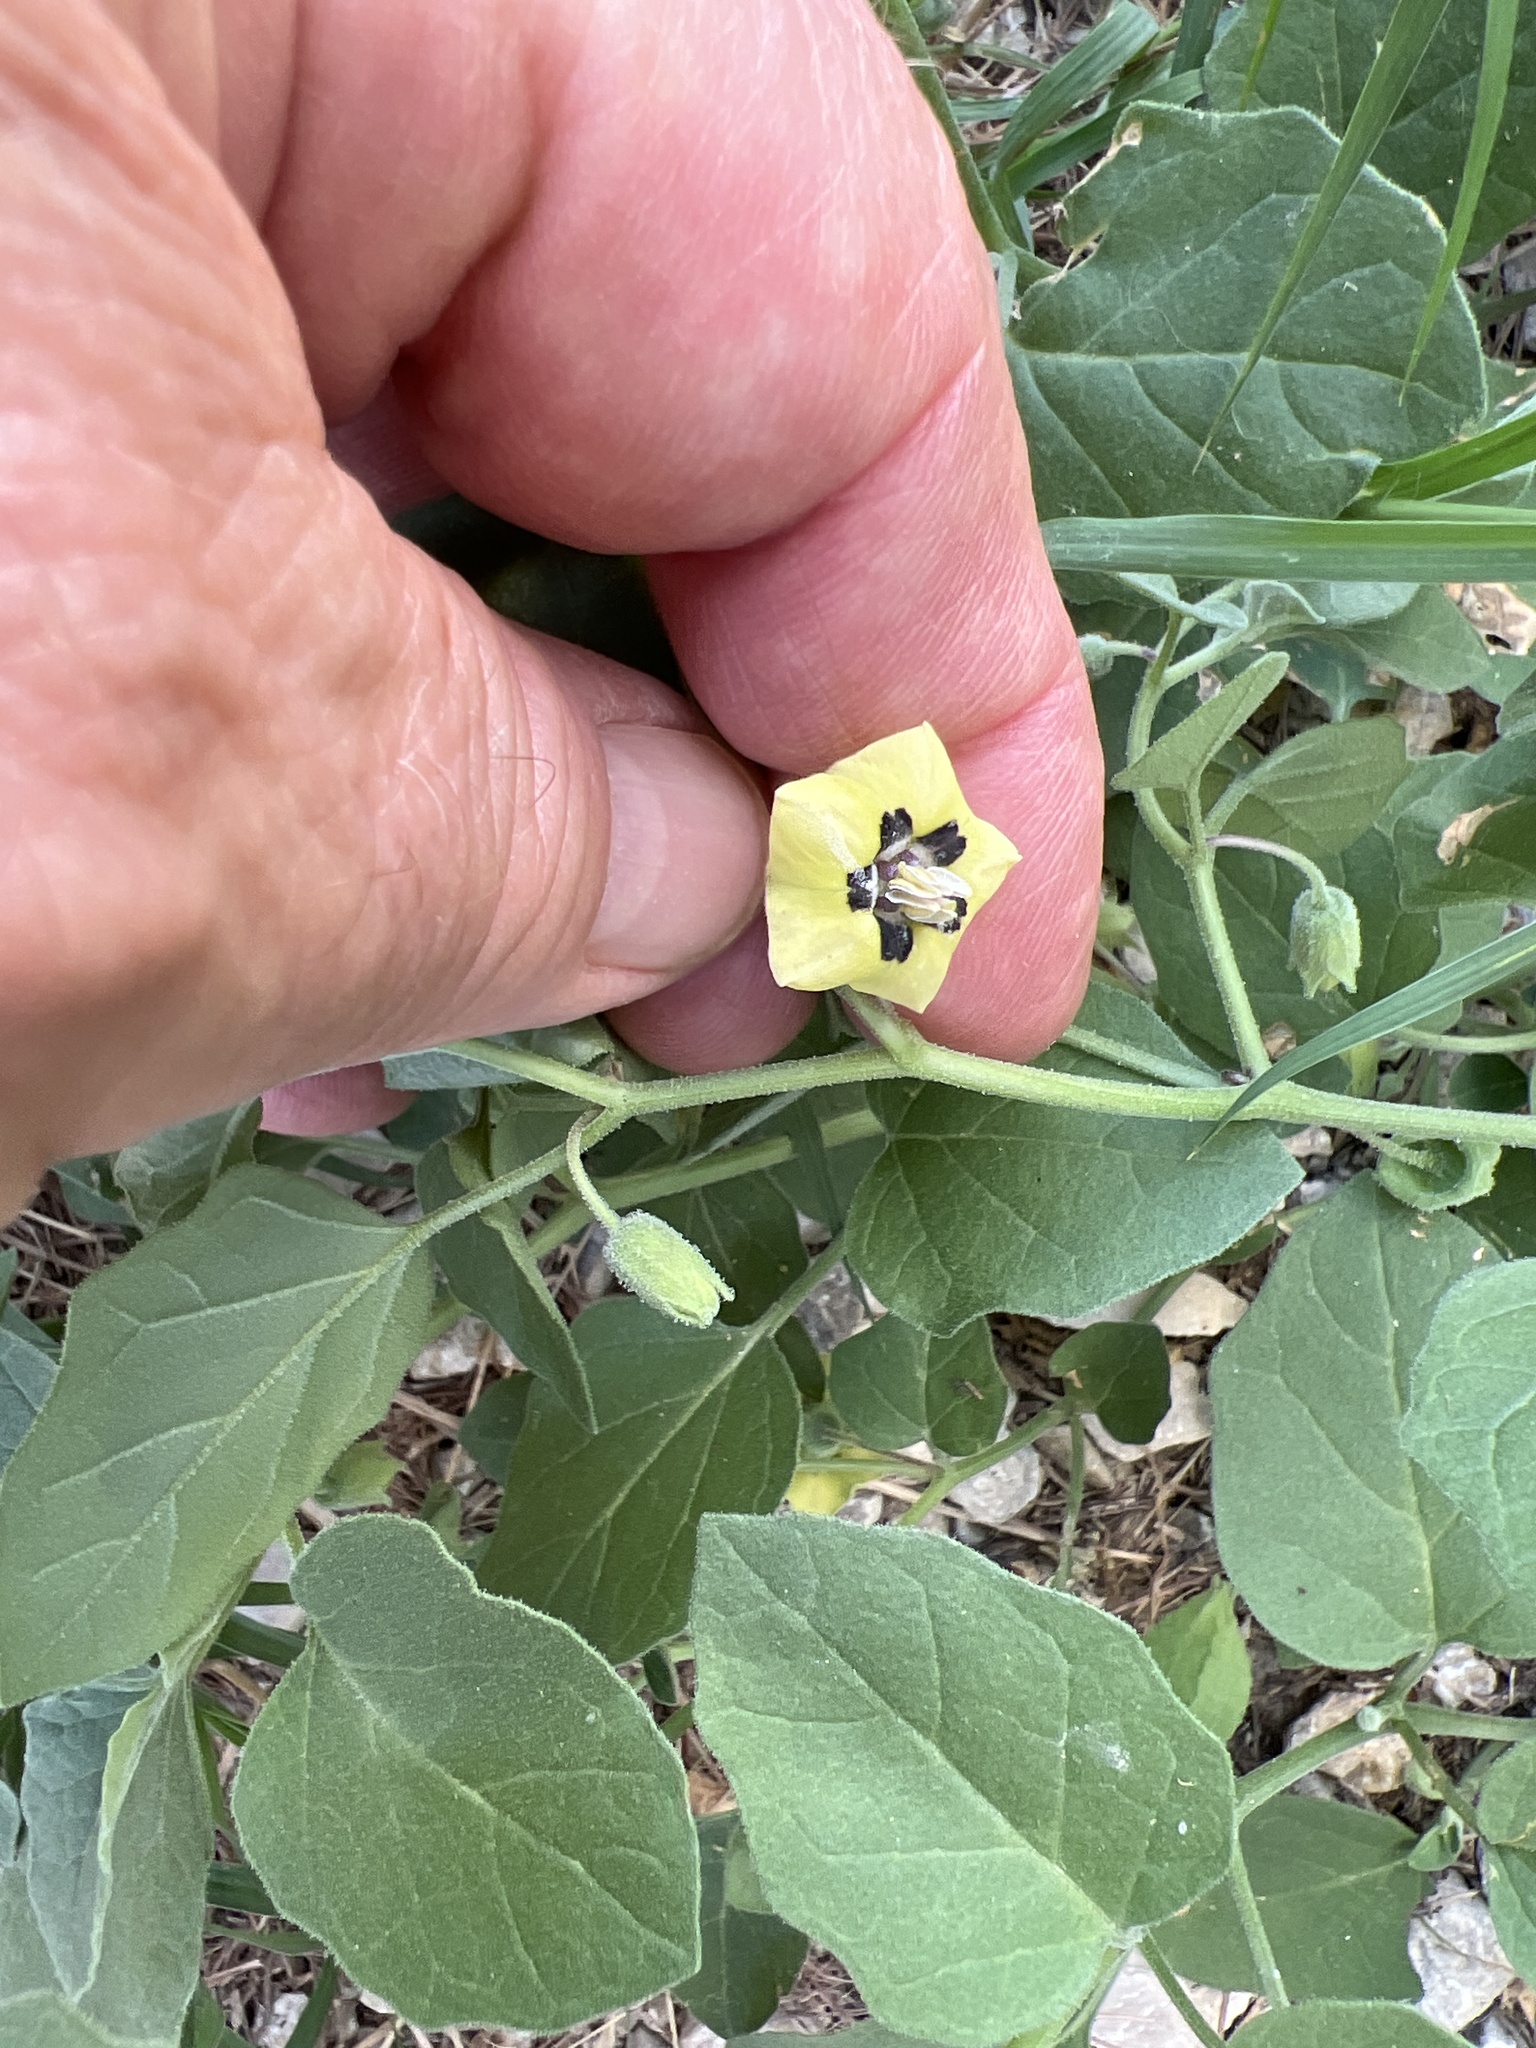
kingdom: Plantae
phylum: Tracheophyta
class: Magnoliopsida
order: Solanales
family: Solanaceae
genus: Physalis
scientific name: Physalis cinerascens
